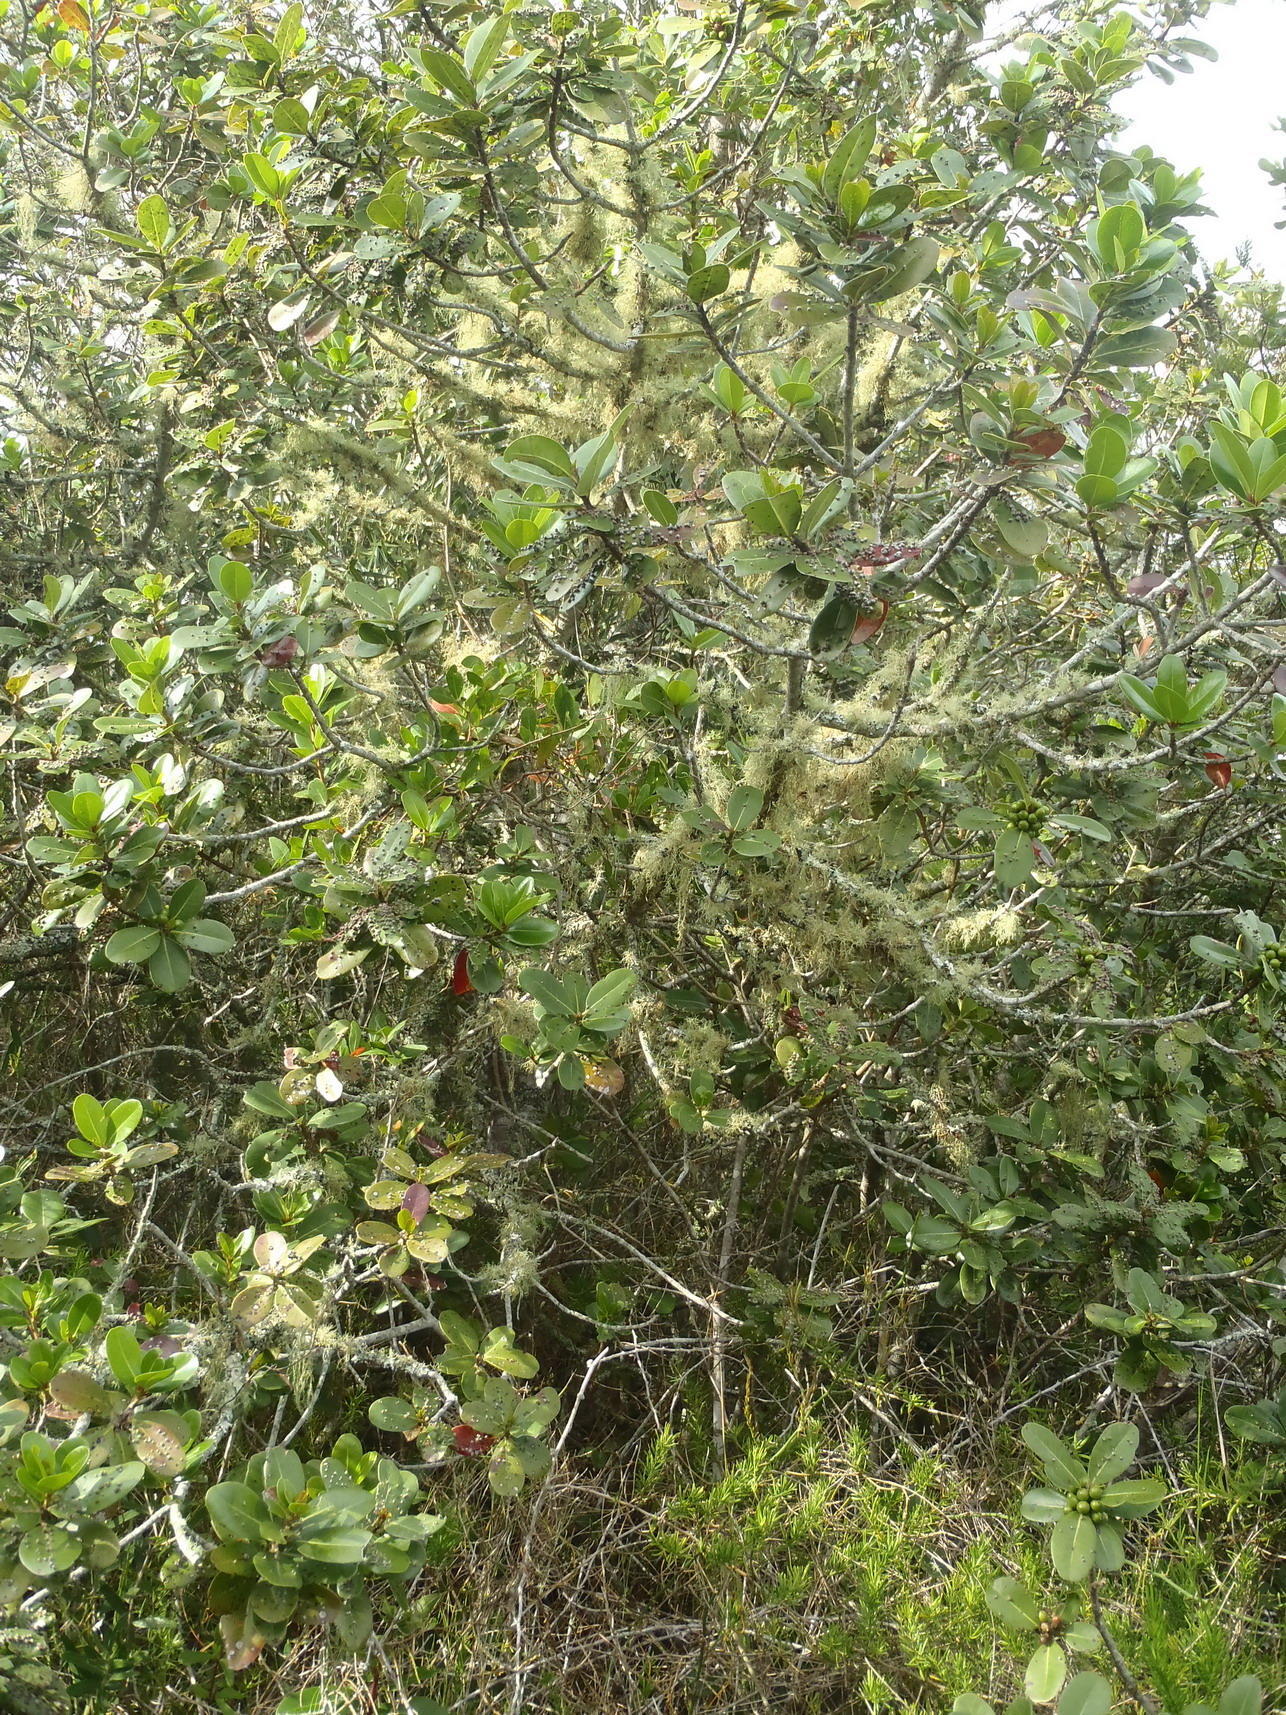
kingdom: Plantae
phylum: Tracheophyta
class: Magnoliopsida
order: Ericales
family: Sapotaceae
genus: Sideroxylon
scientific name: Sideroxylon inerme
